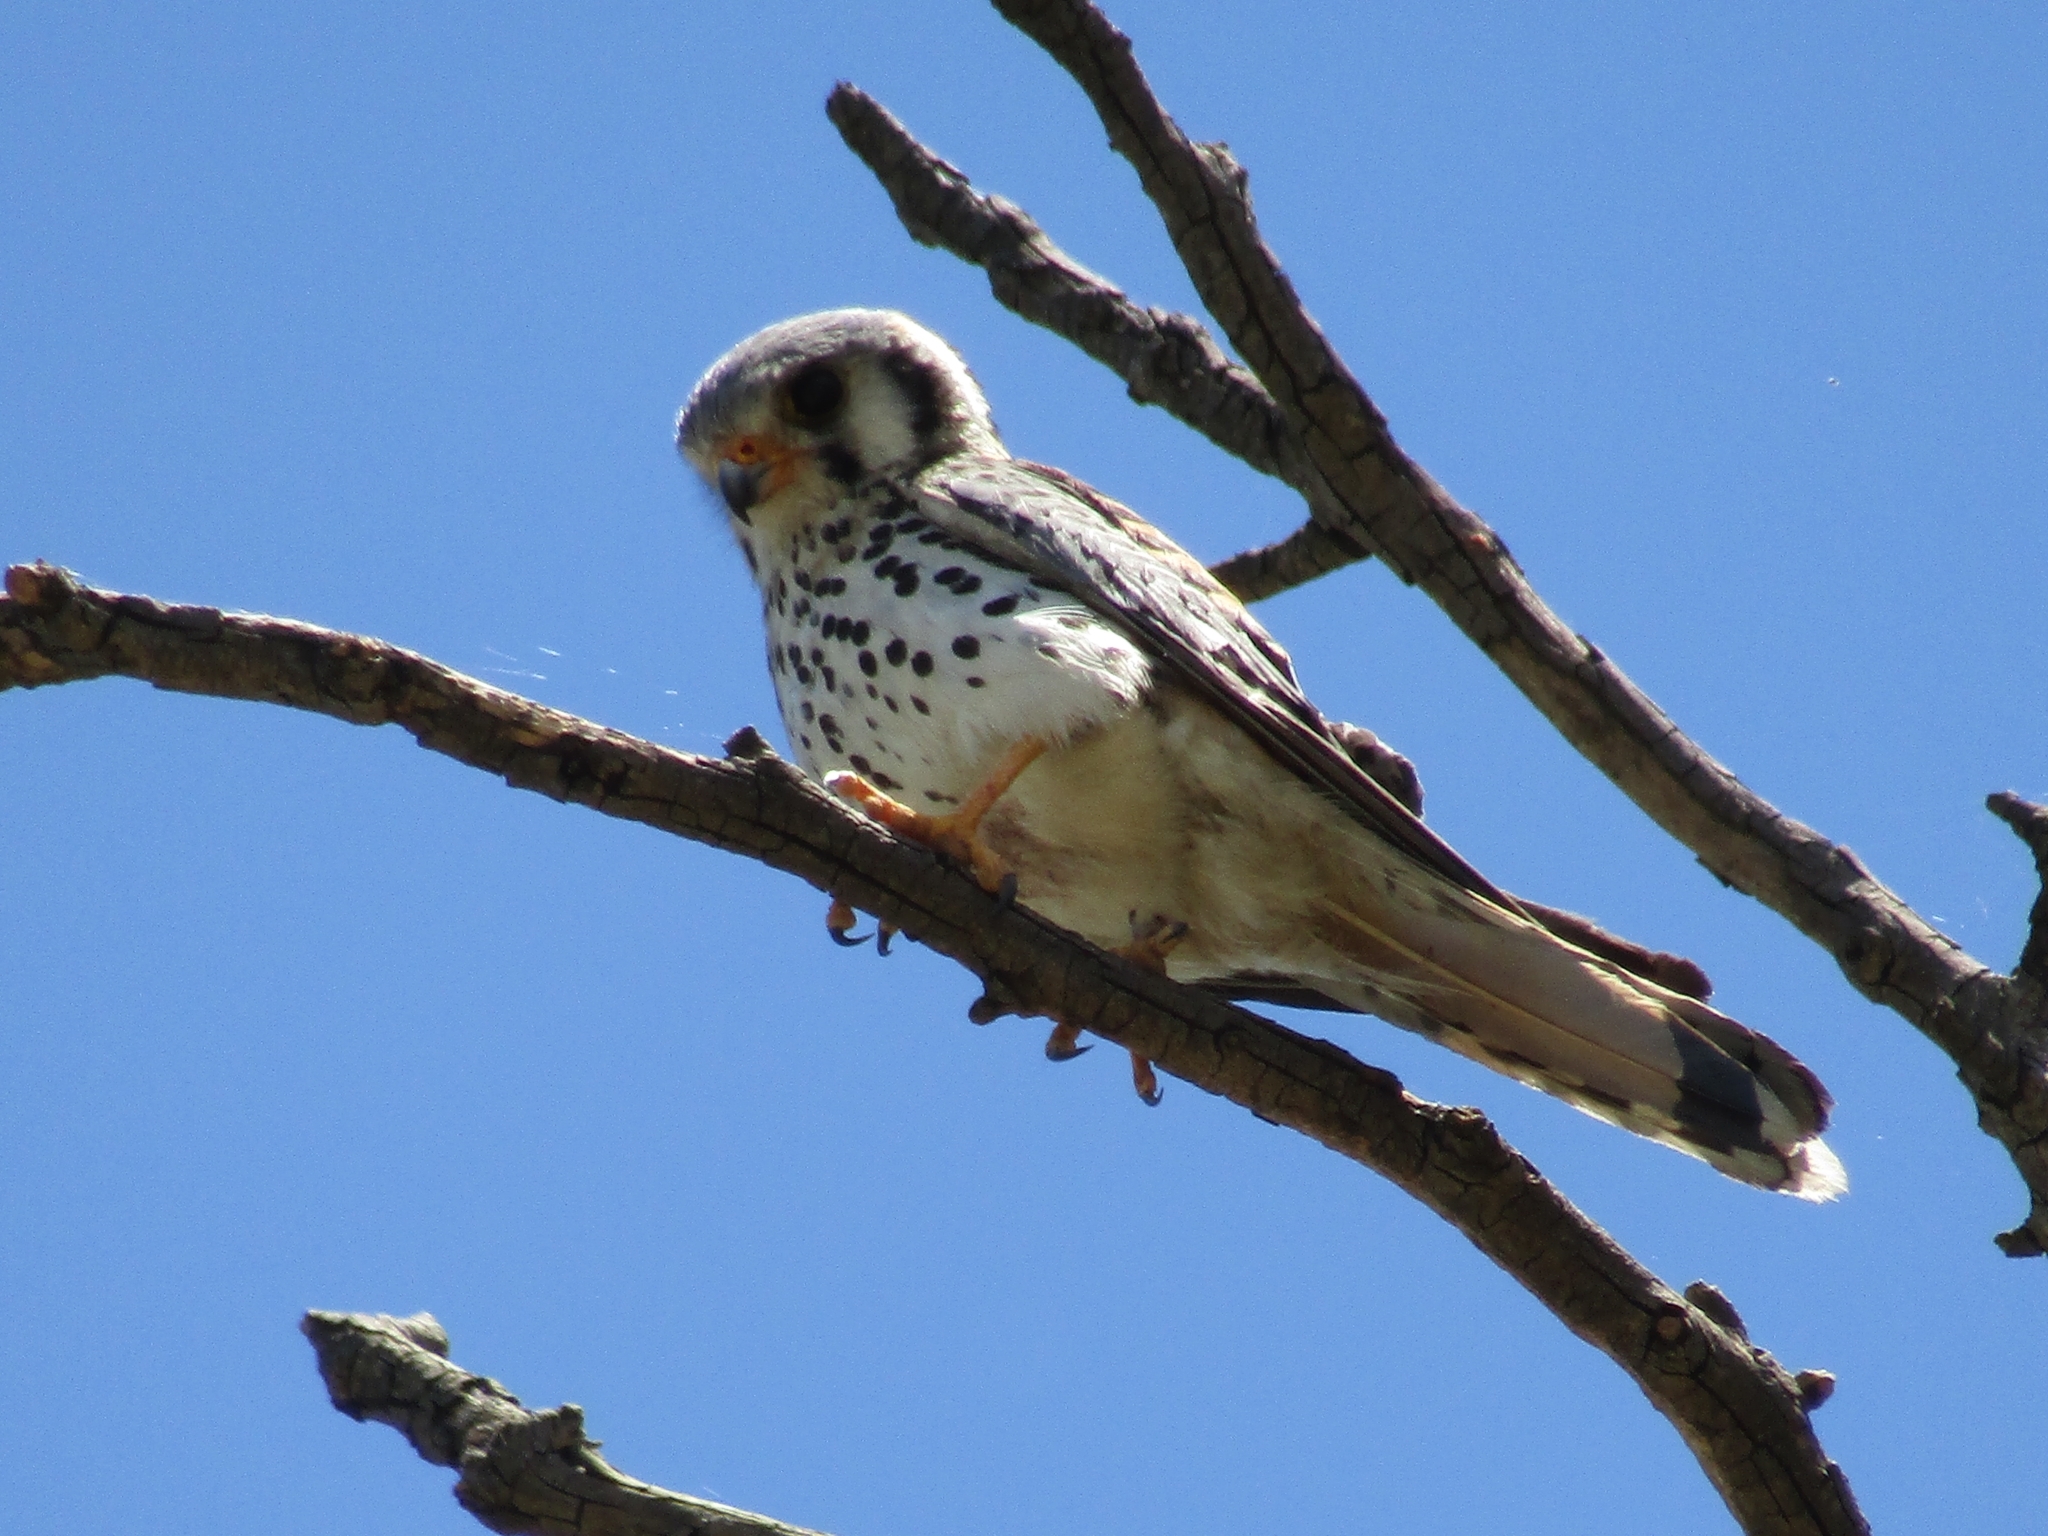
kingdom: Animalia
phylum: Chordata
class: Aves
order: Falconiformes
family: Falconidae
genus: Falco
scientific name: Falco sparverius
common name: American kestrel
